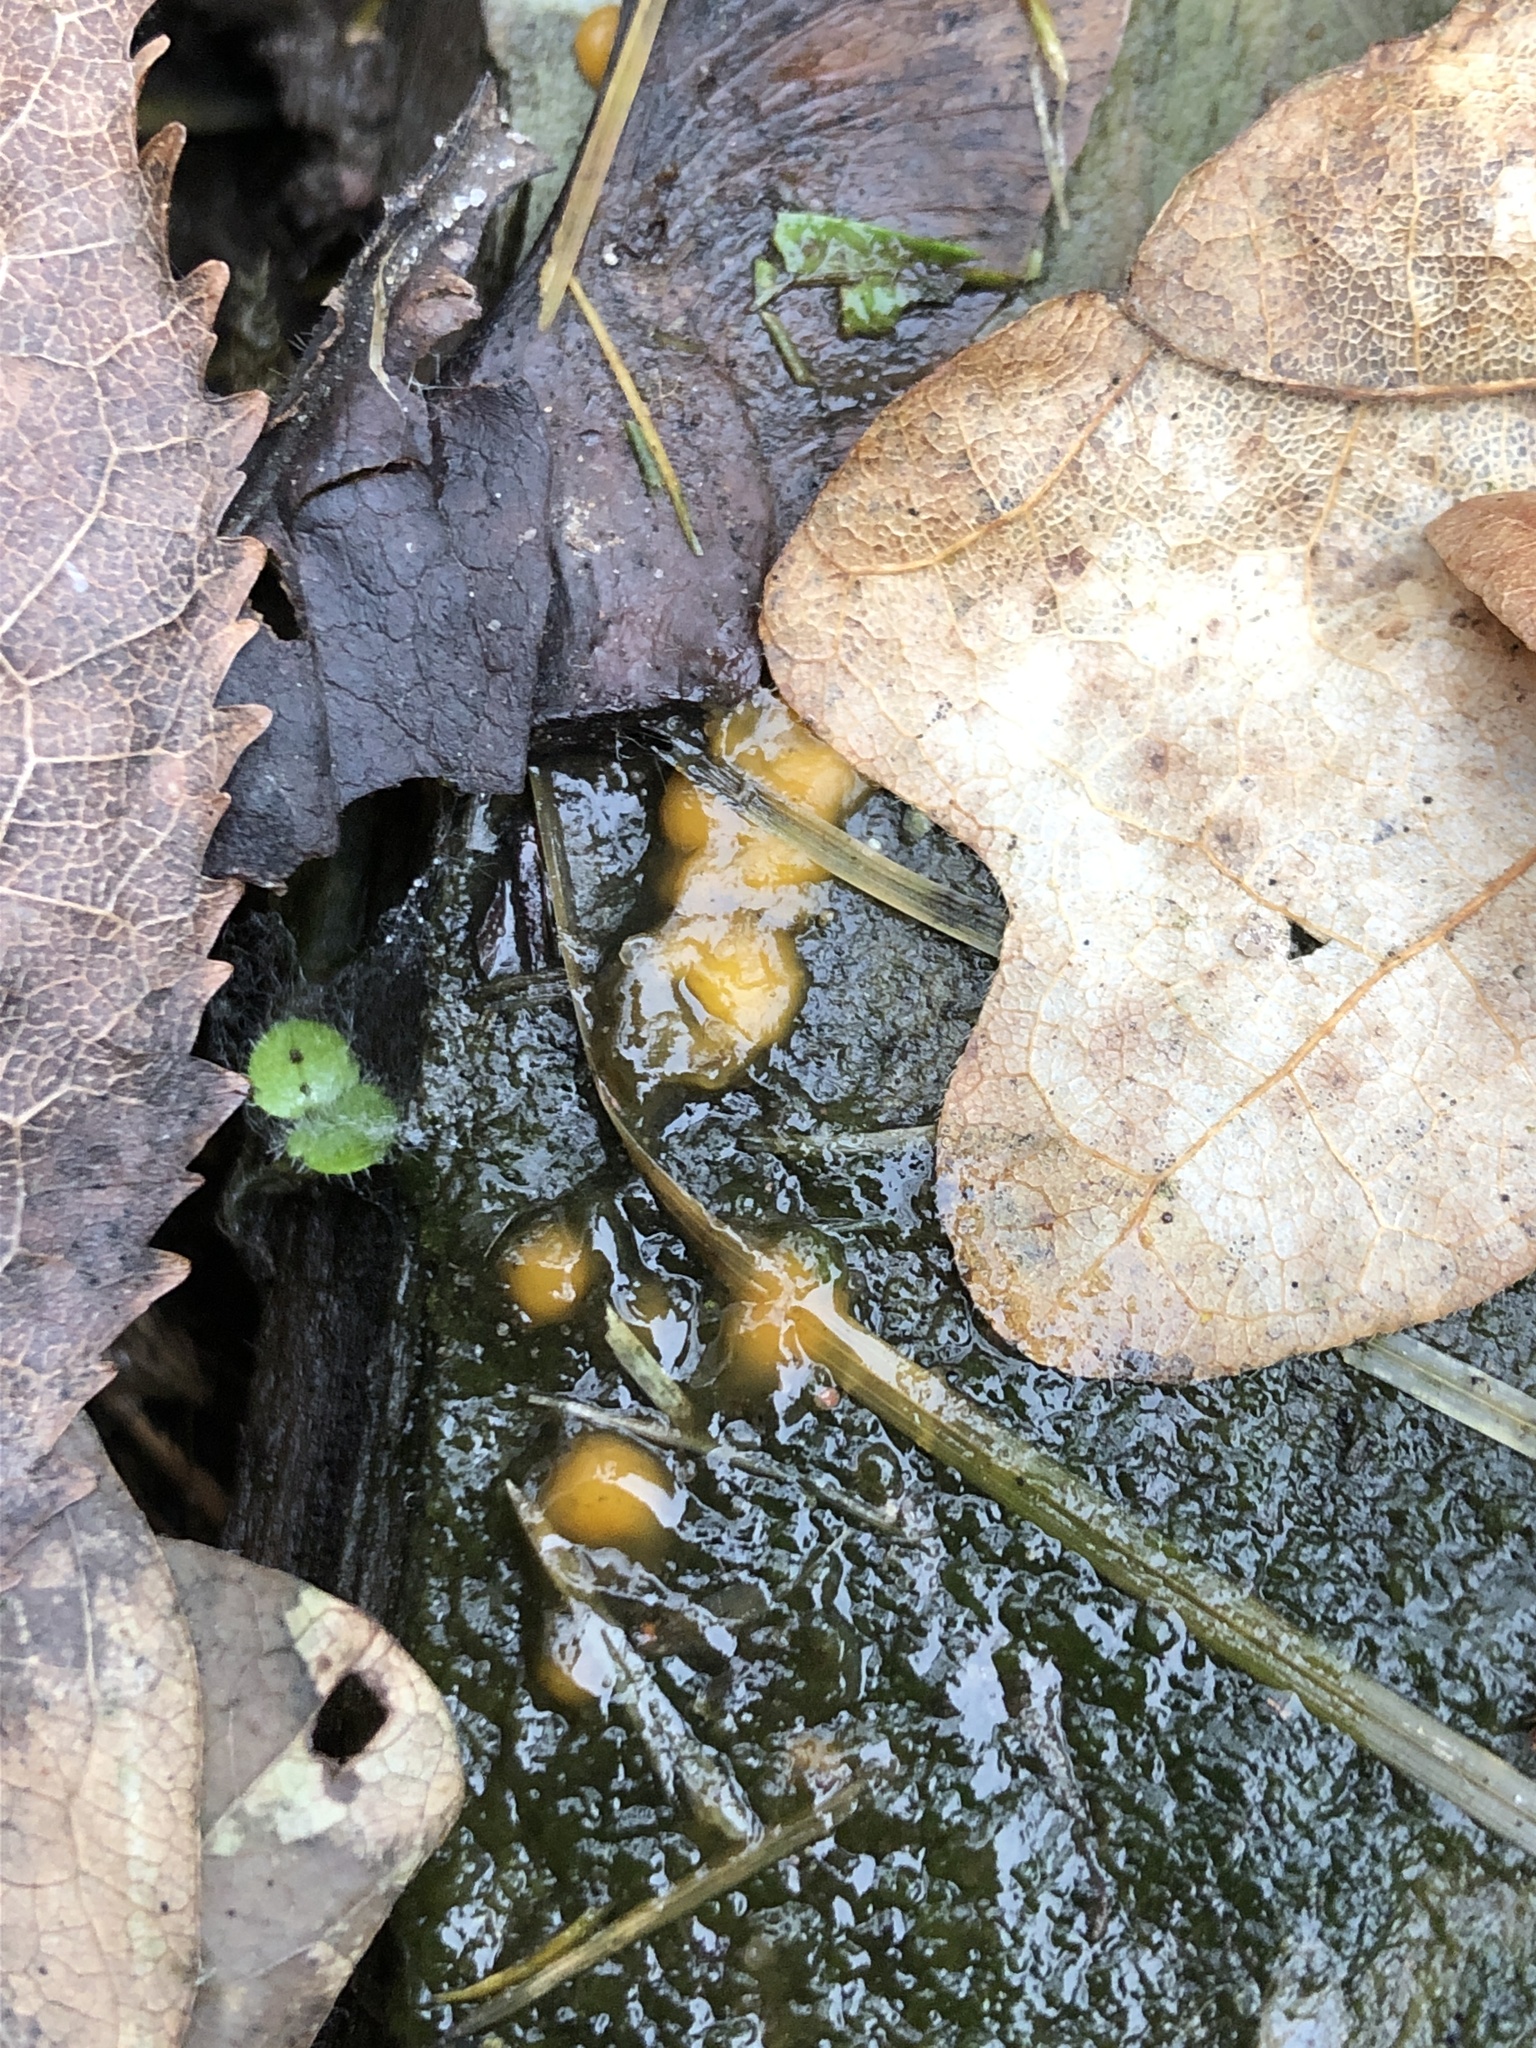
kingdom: Fungi
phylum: Basidiomycota
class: Dacrymycetes
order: Dacrymycetales
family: Dacrymycetaceae
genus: Dacrymyces
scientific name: Dacrymyces stillatus
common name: Common jelly spot
